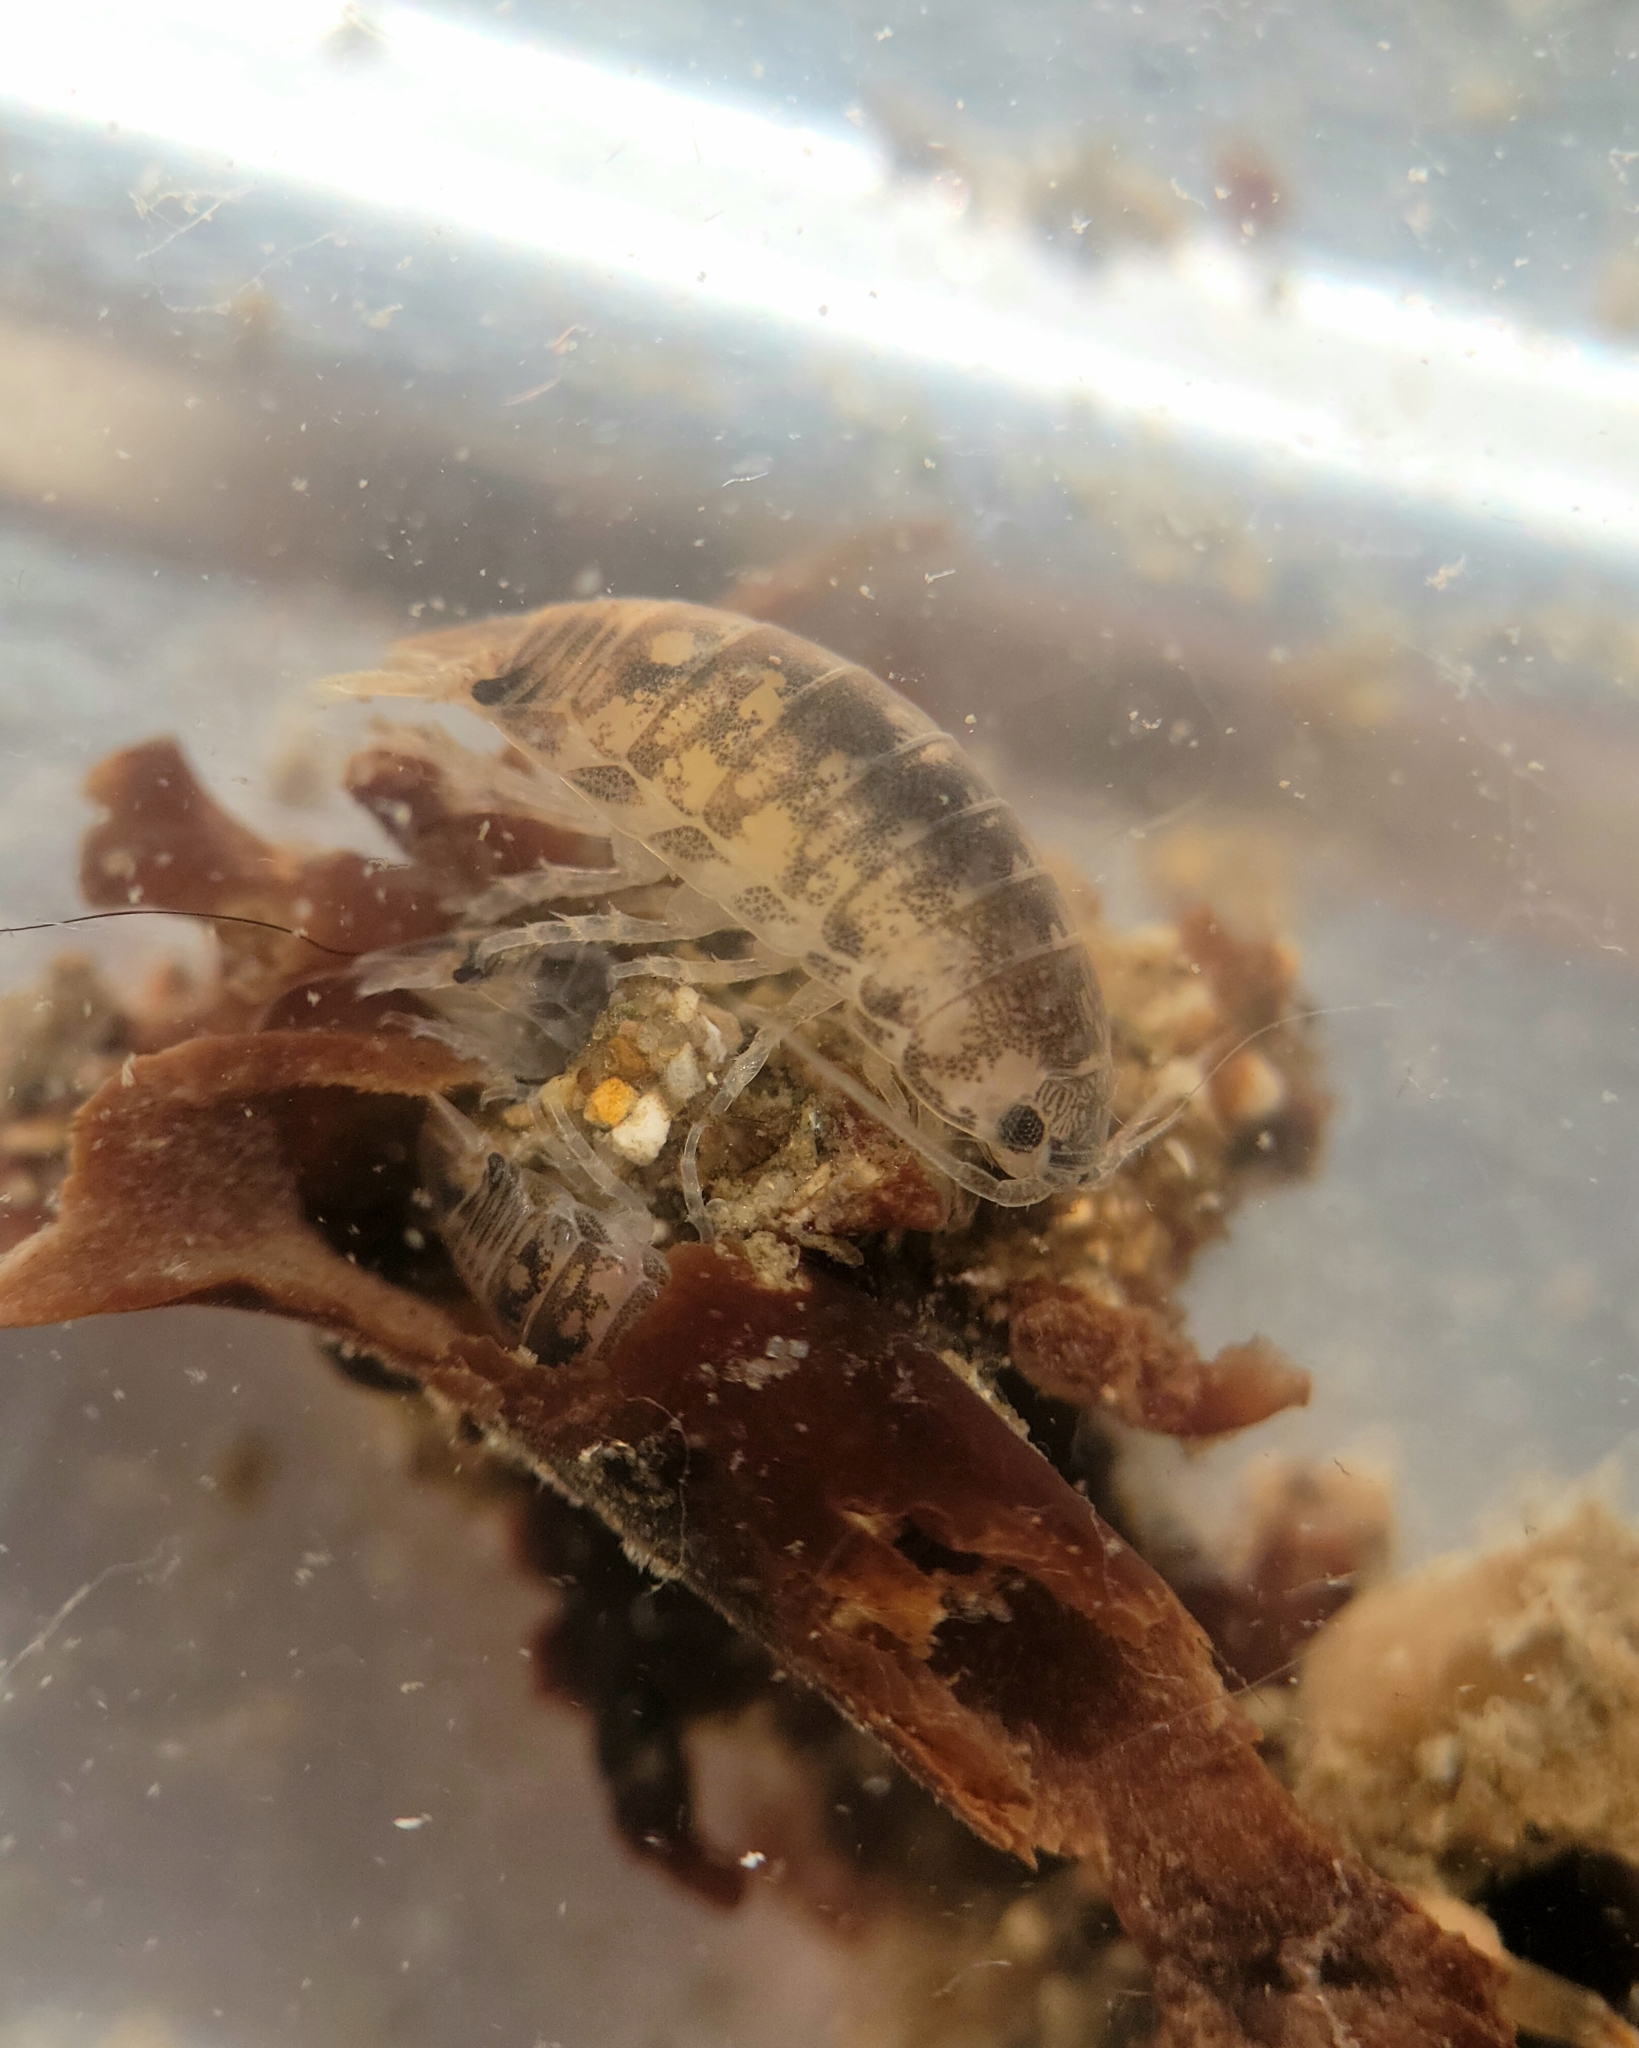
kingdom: Animalia
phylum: Arthropoda
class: Malacostraca
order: Isopoda
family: Cirolanidae
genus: Cirolana
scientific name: Cirolana harfordi
